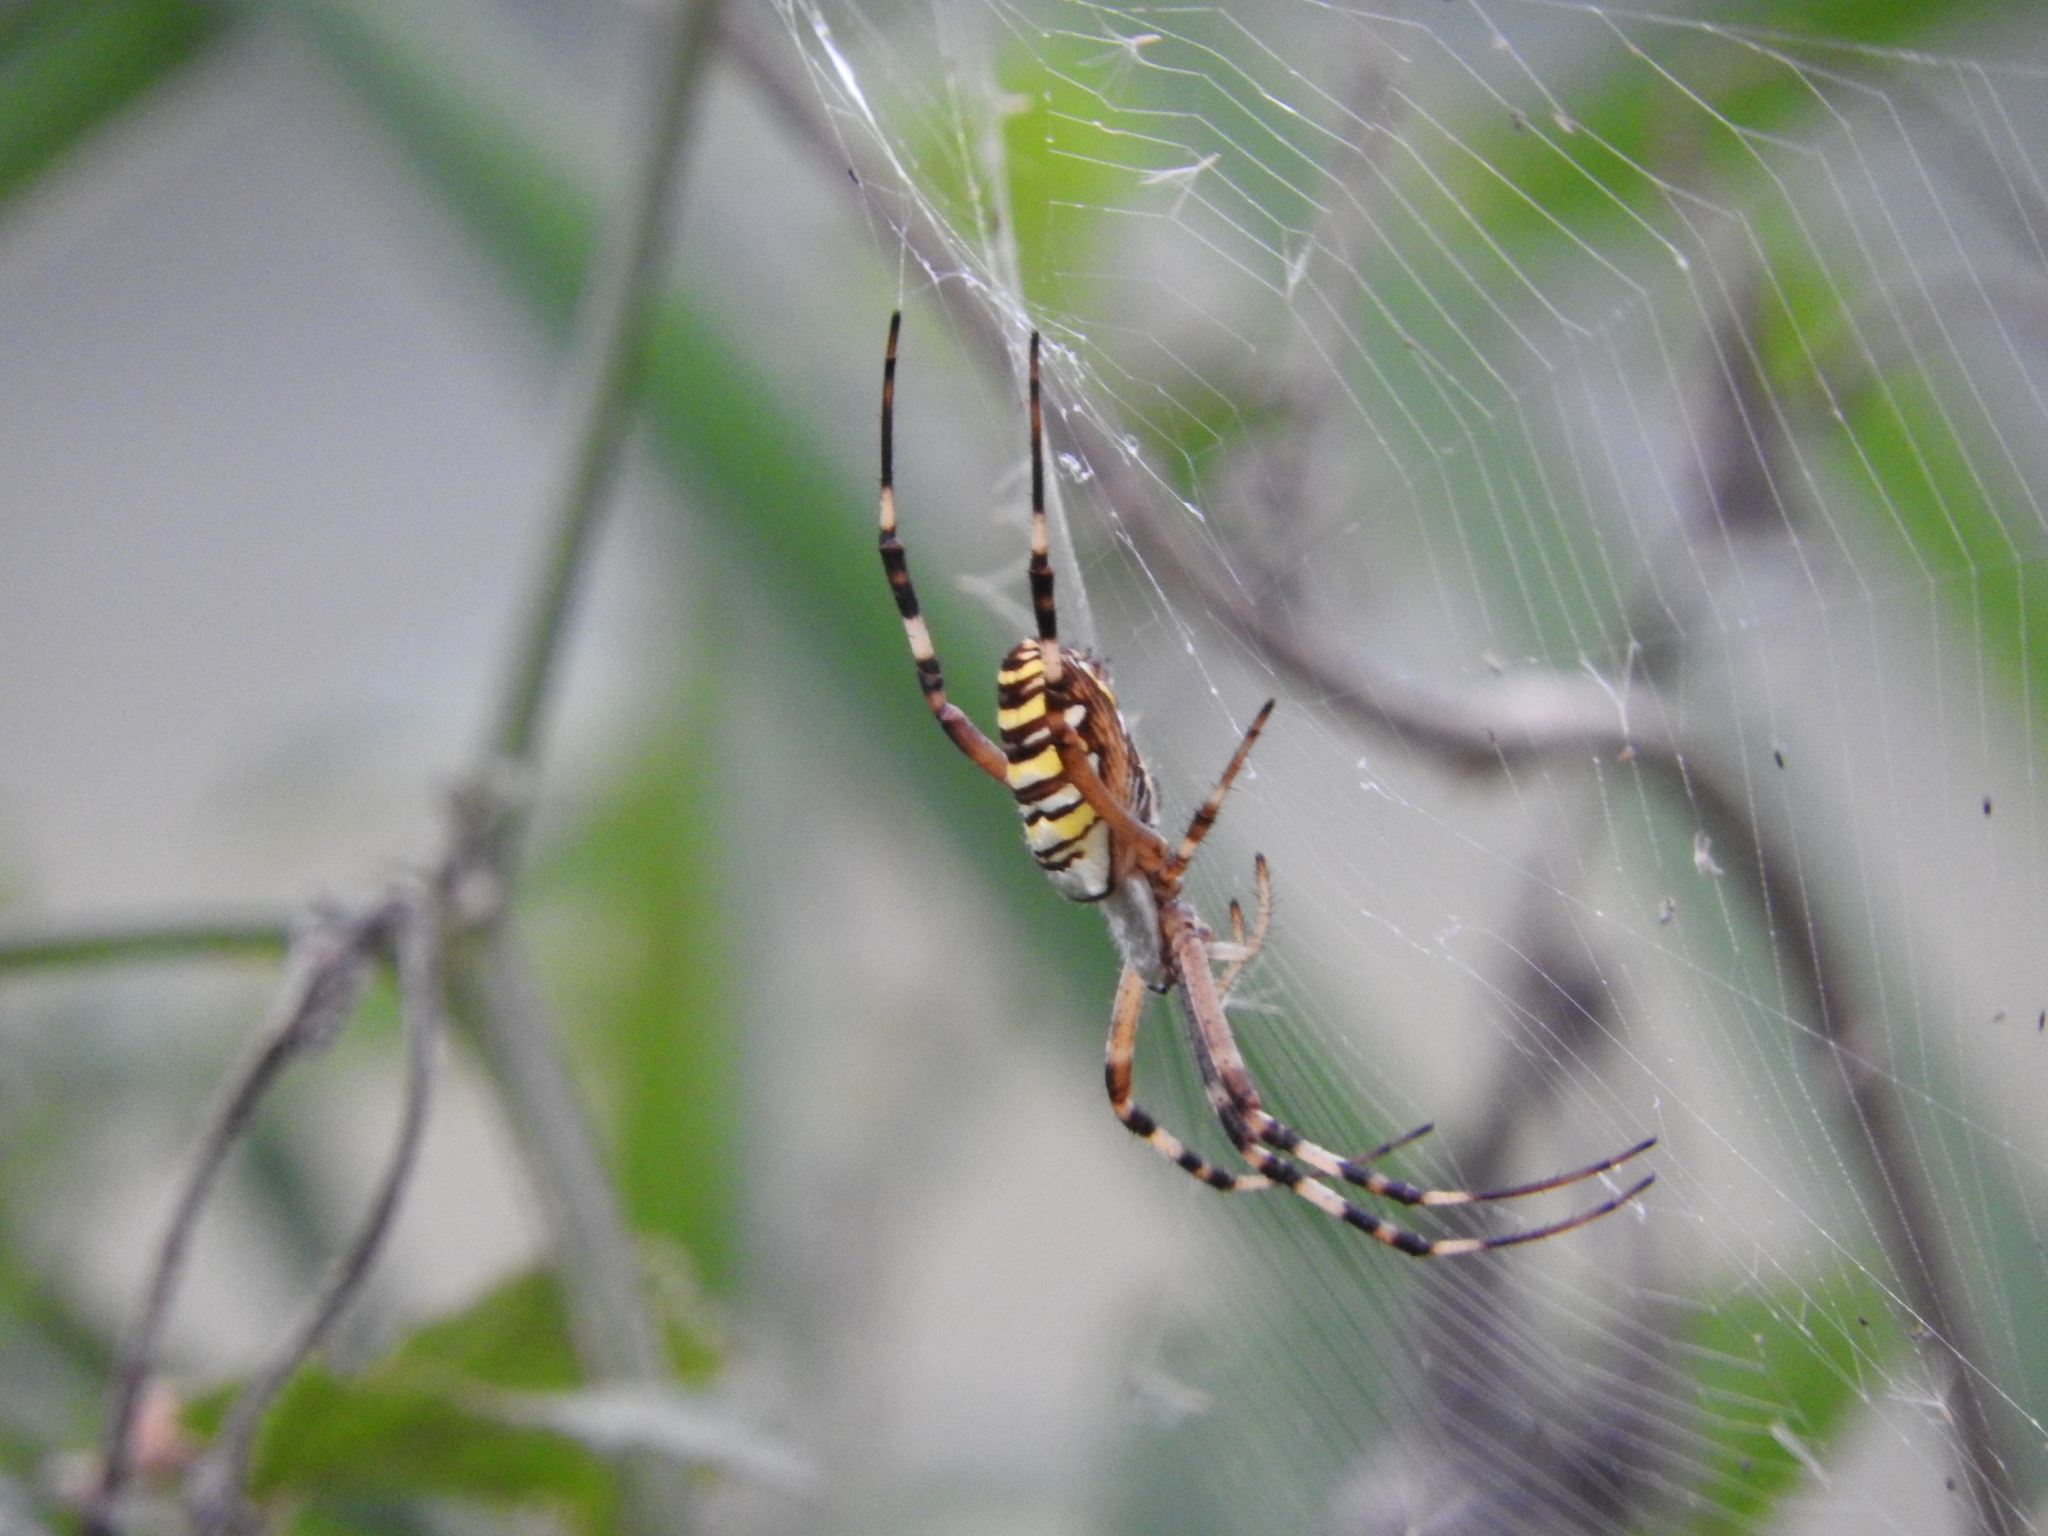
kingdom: Animalia
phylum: Arthropoda
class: Arachnida
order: Araneae
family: Araneidae
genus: Argiope
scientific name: Argiope bruennichi
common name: Wasp spider
